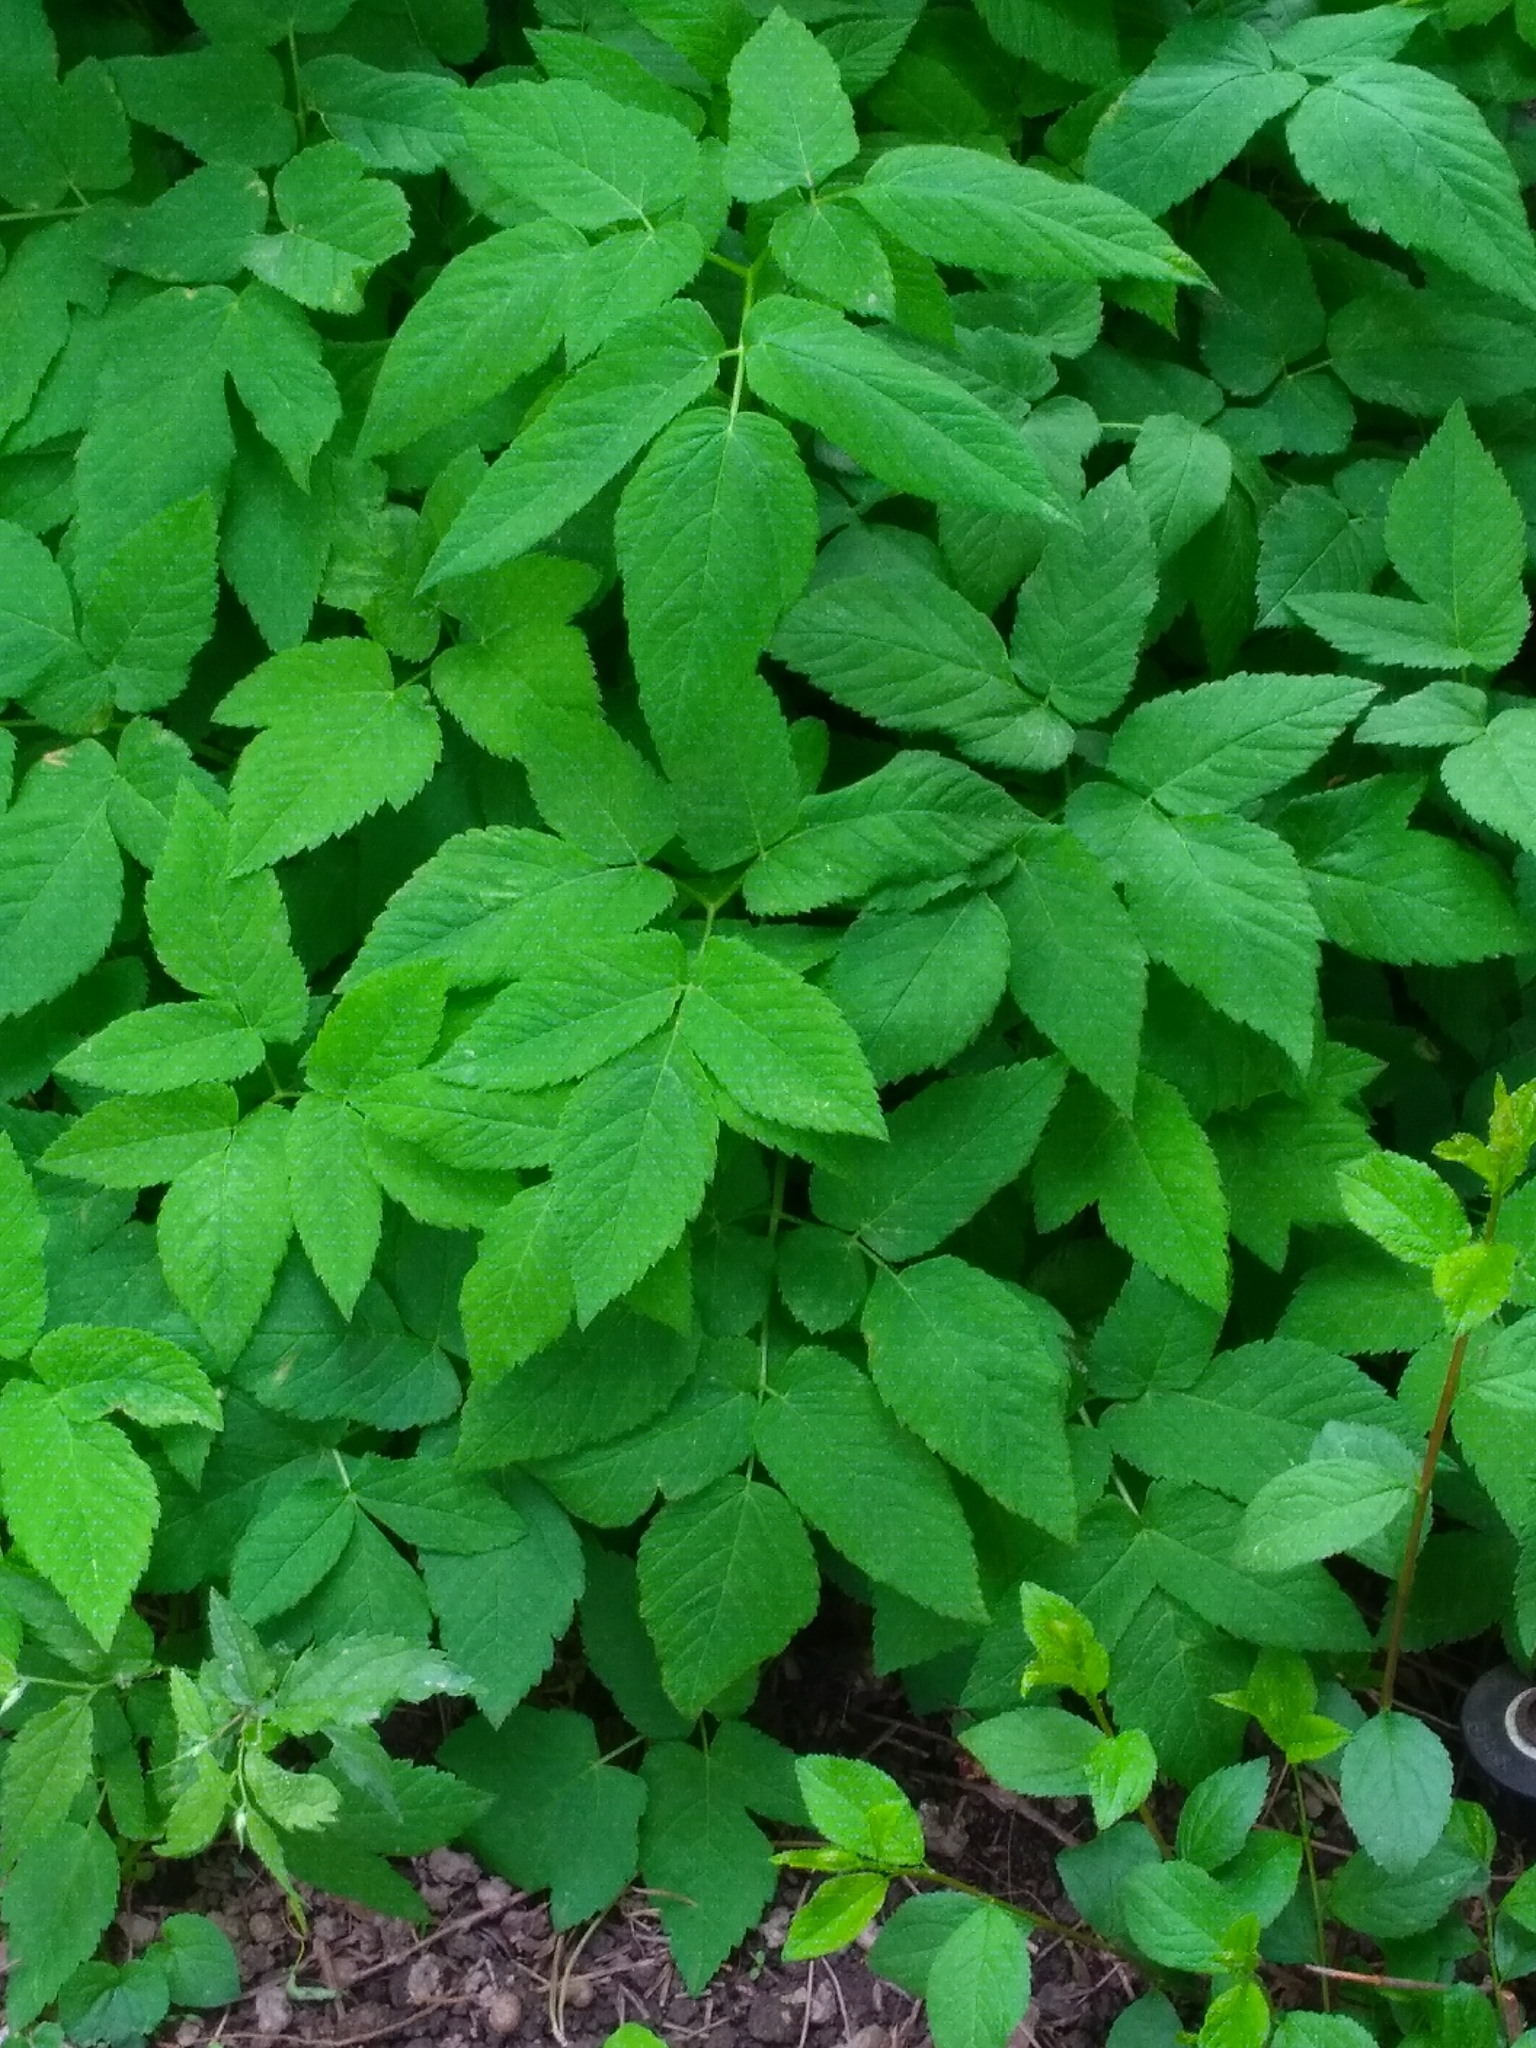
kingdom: Plantae
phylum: Tracheophyta
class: Magnoliopsida
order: Apiales
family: Apiaceae
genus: Aegopodium
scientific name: Aegopodium podagraria
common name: Ground-elder
